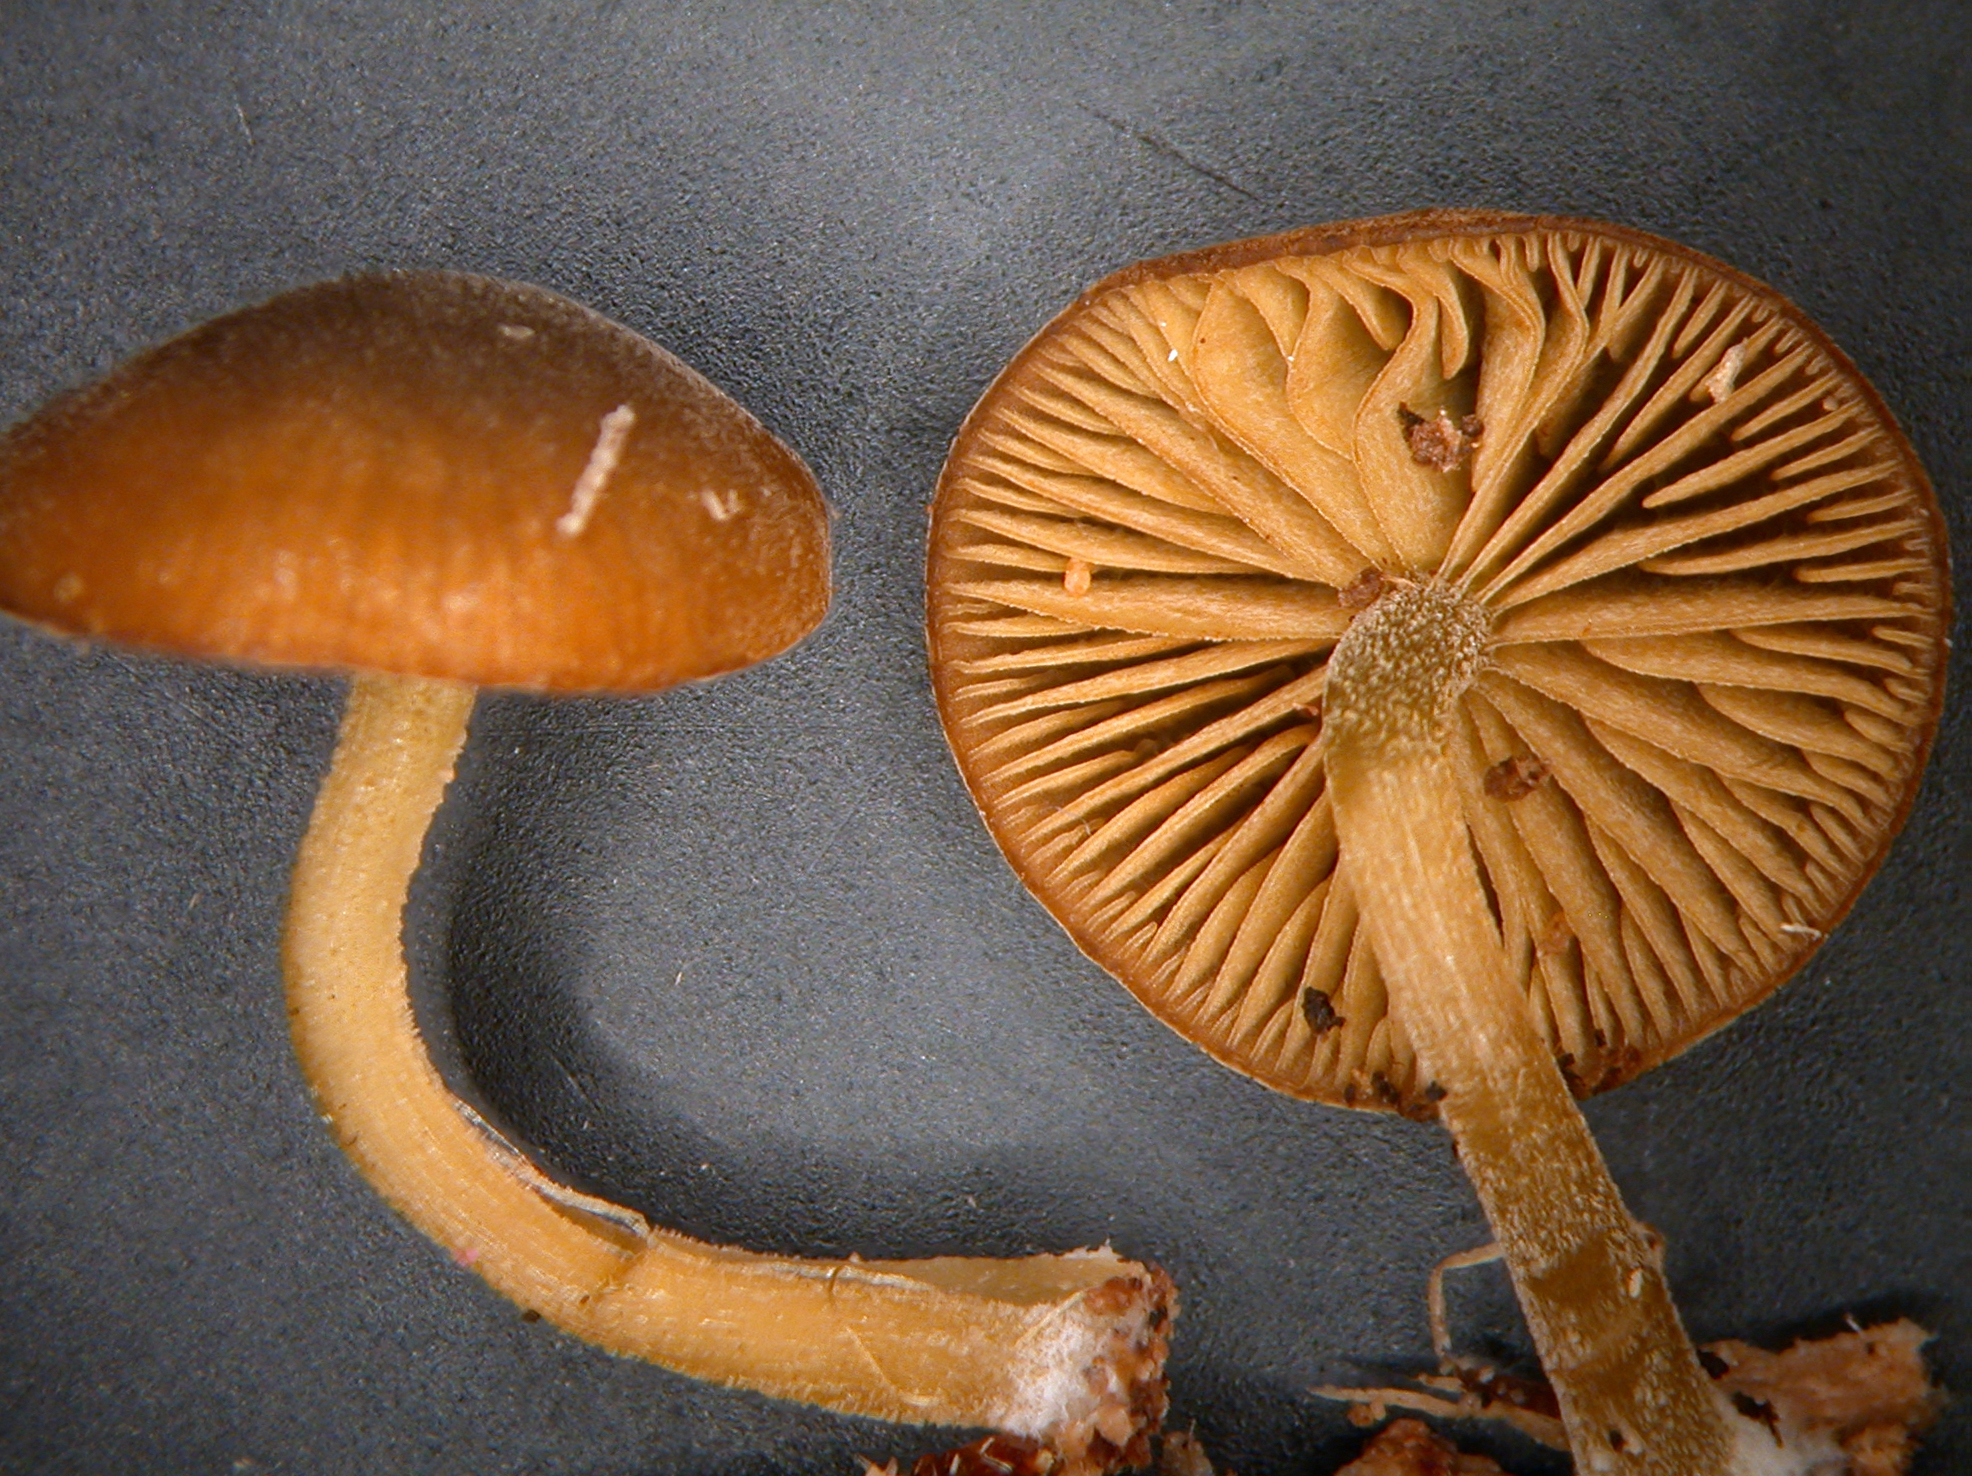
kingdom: Fungi
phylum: Basidiomycota
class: Agaricomycetes
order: Agaricales
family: Crepidotaceae
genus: Simocybe
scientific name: Simocybe unica
